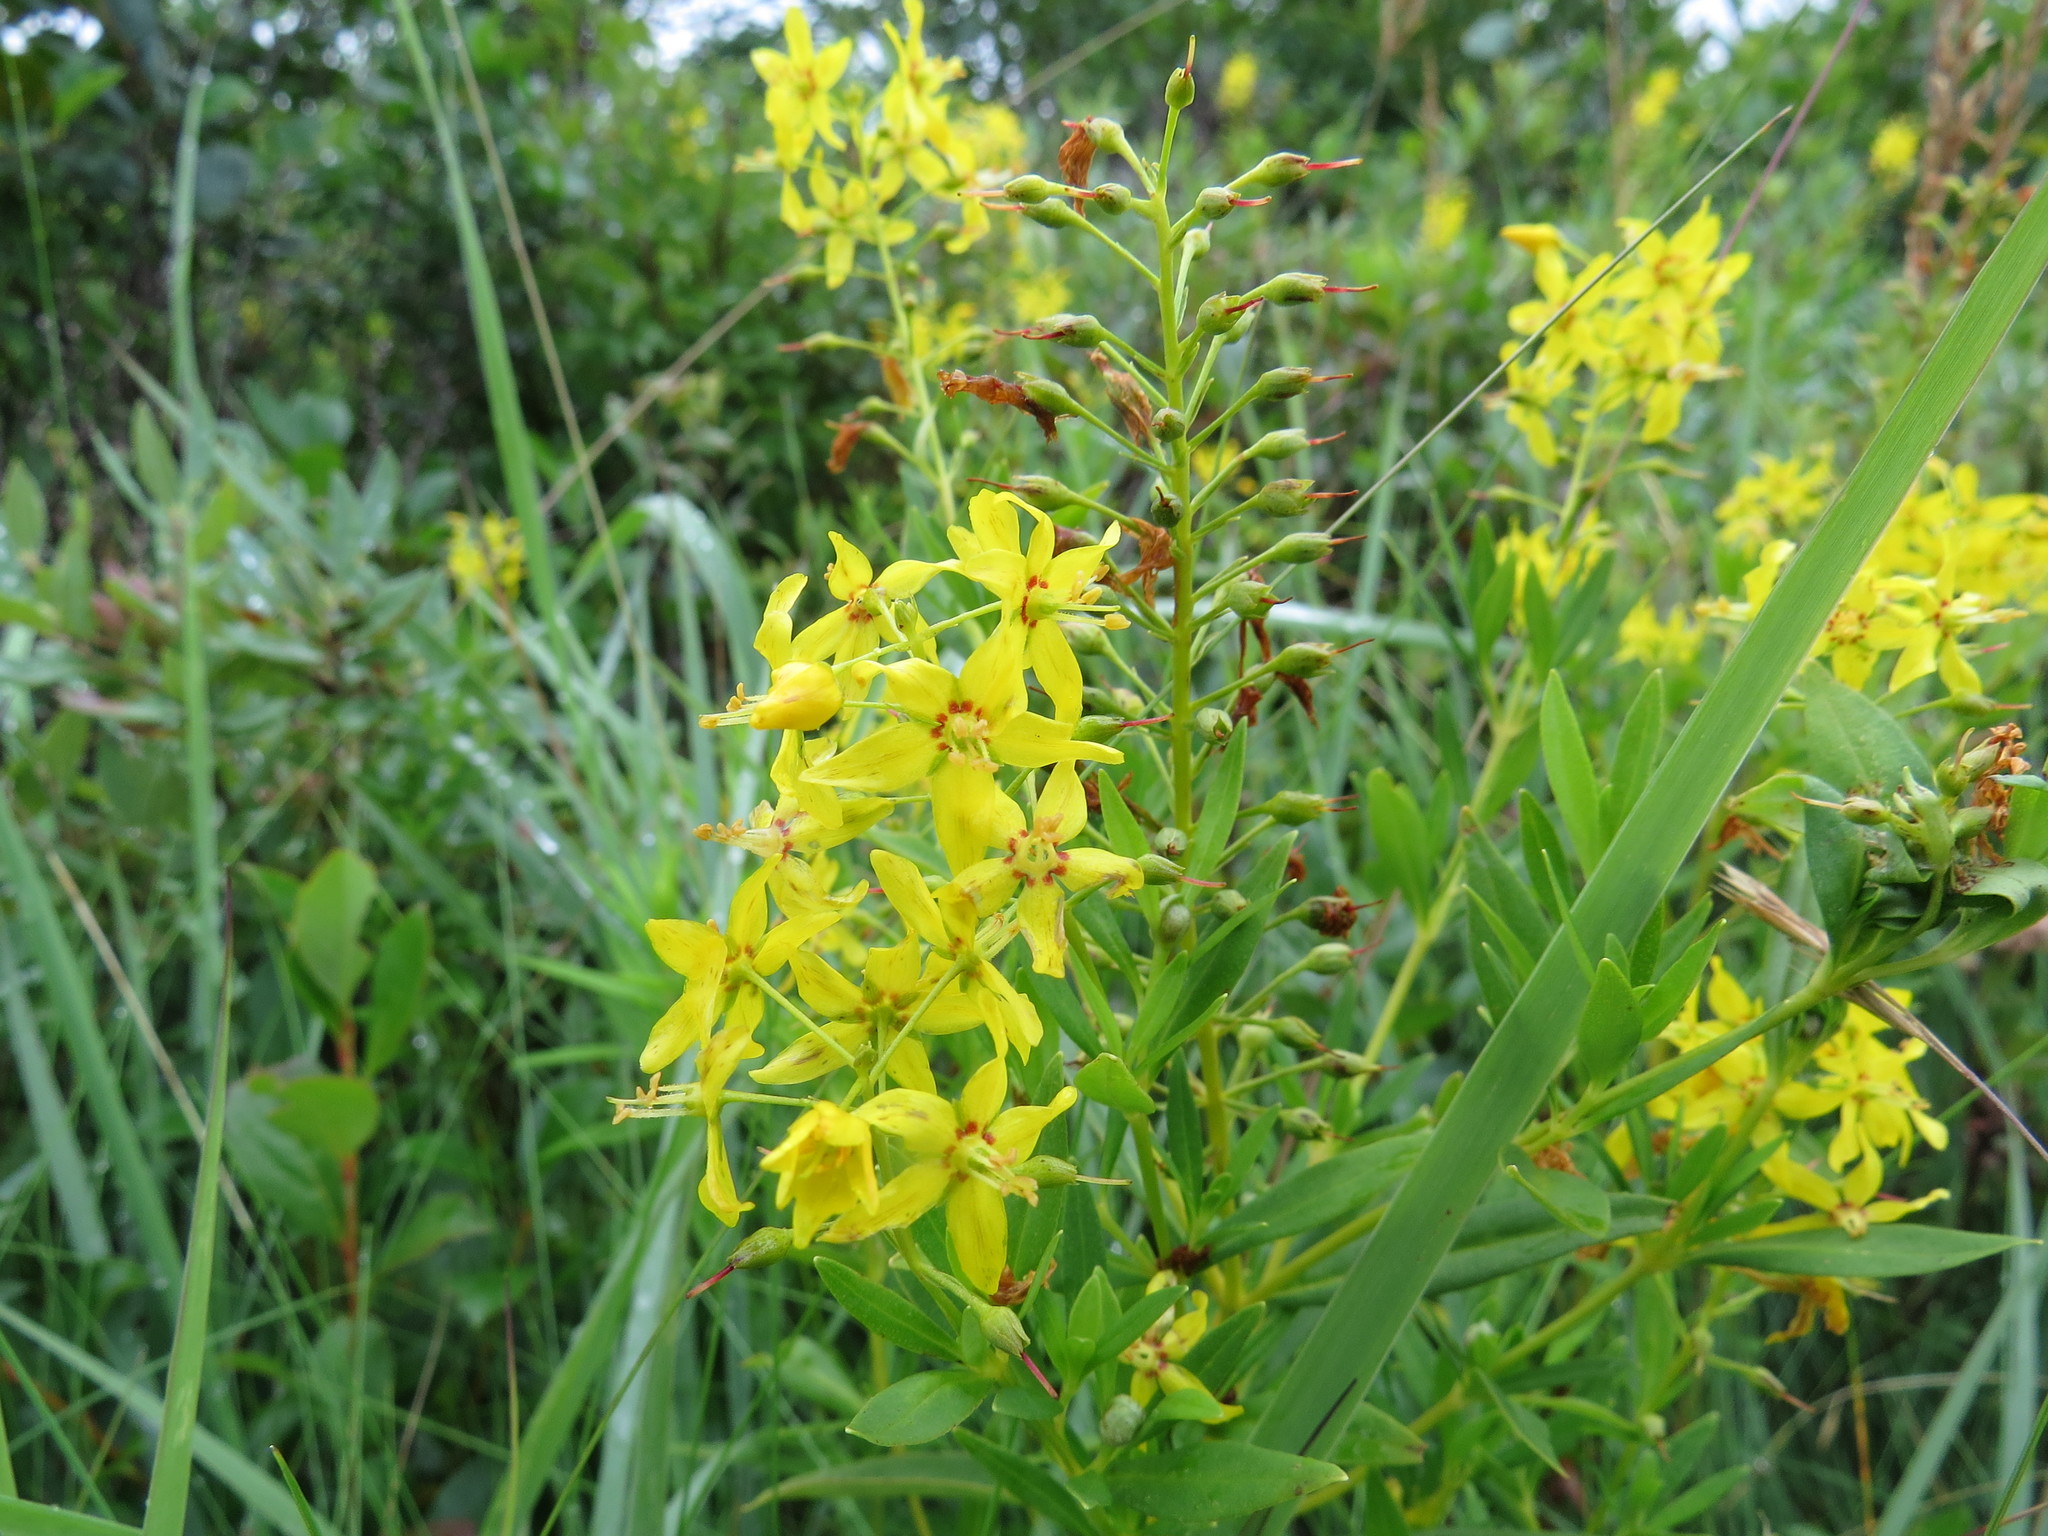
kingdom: Plantae
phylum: Tracheophyta
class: Magnoliopsida
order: Ericales
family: Primulaceae
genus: Lysimachia
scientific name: Lysimachia terrestris
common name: Lake loosestrife
